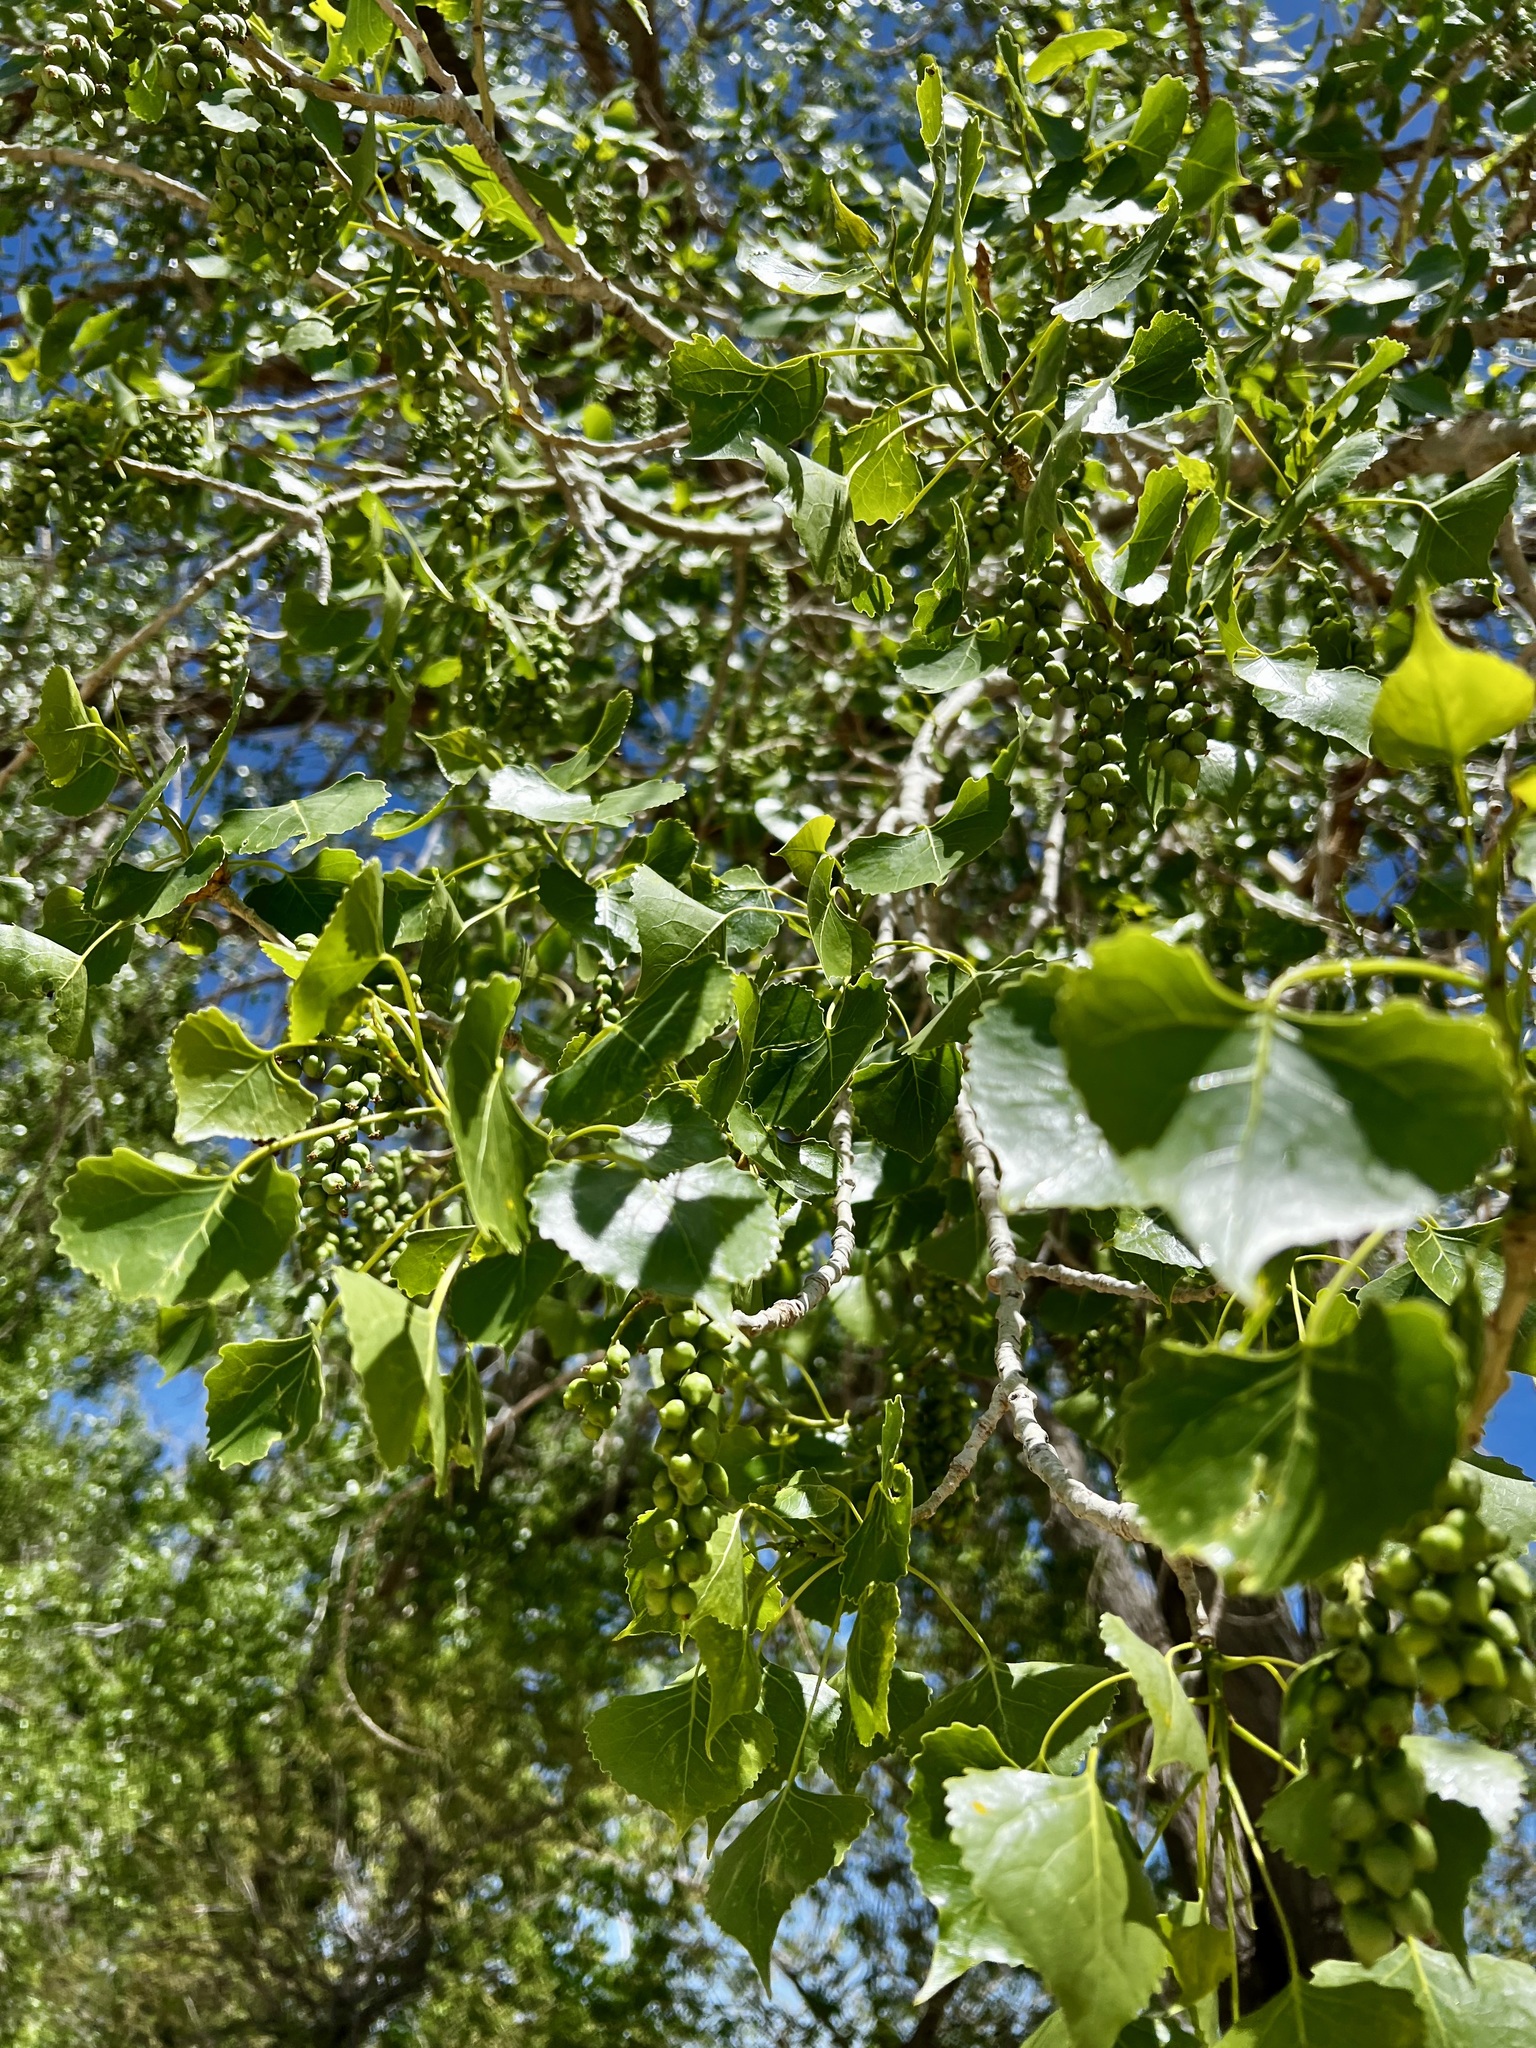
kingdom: Plantae
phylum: Tracheophyta
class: Magnoliopsida
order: Malpighiales
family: Salicaceae
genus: Populus
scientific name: Populus deltoides
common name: Eastern cottonwood
